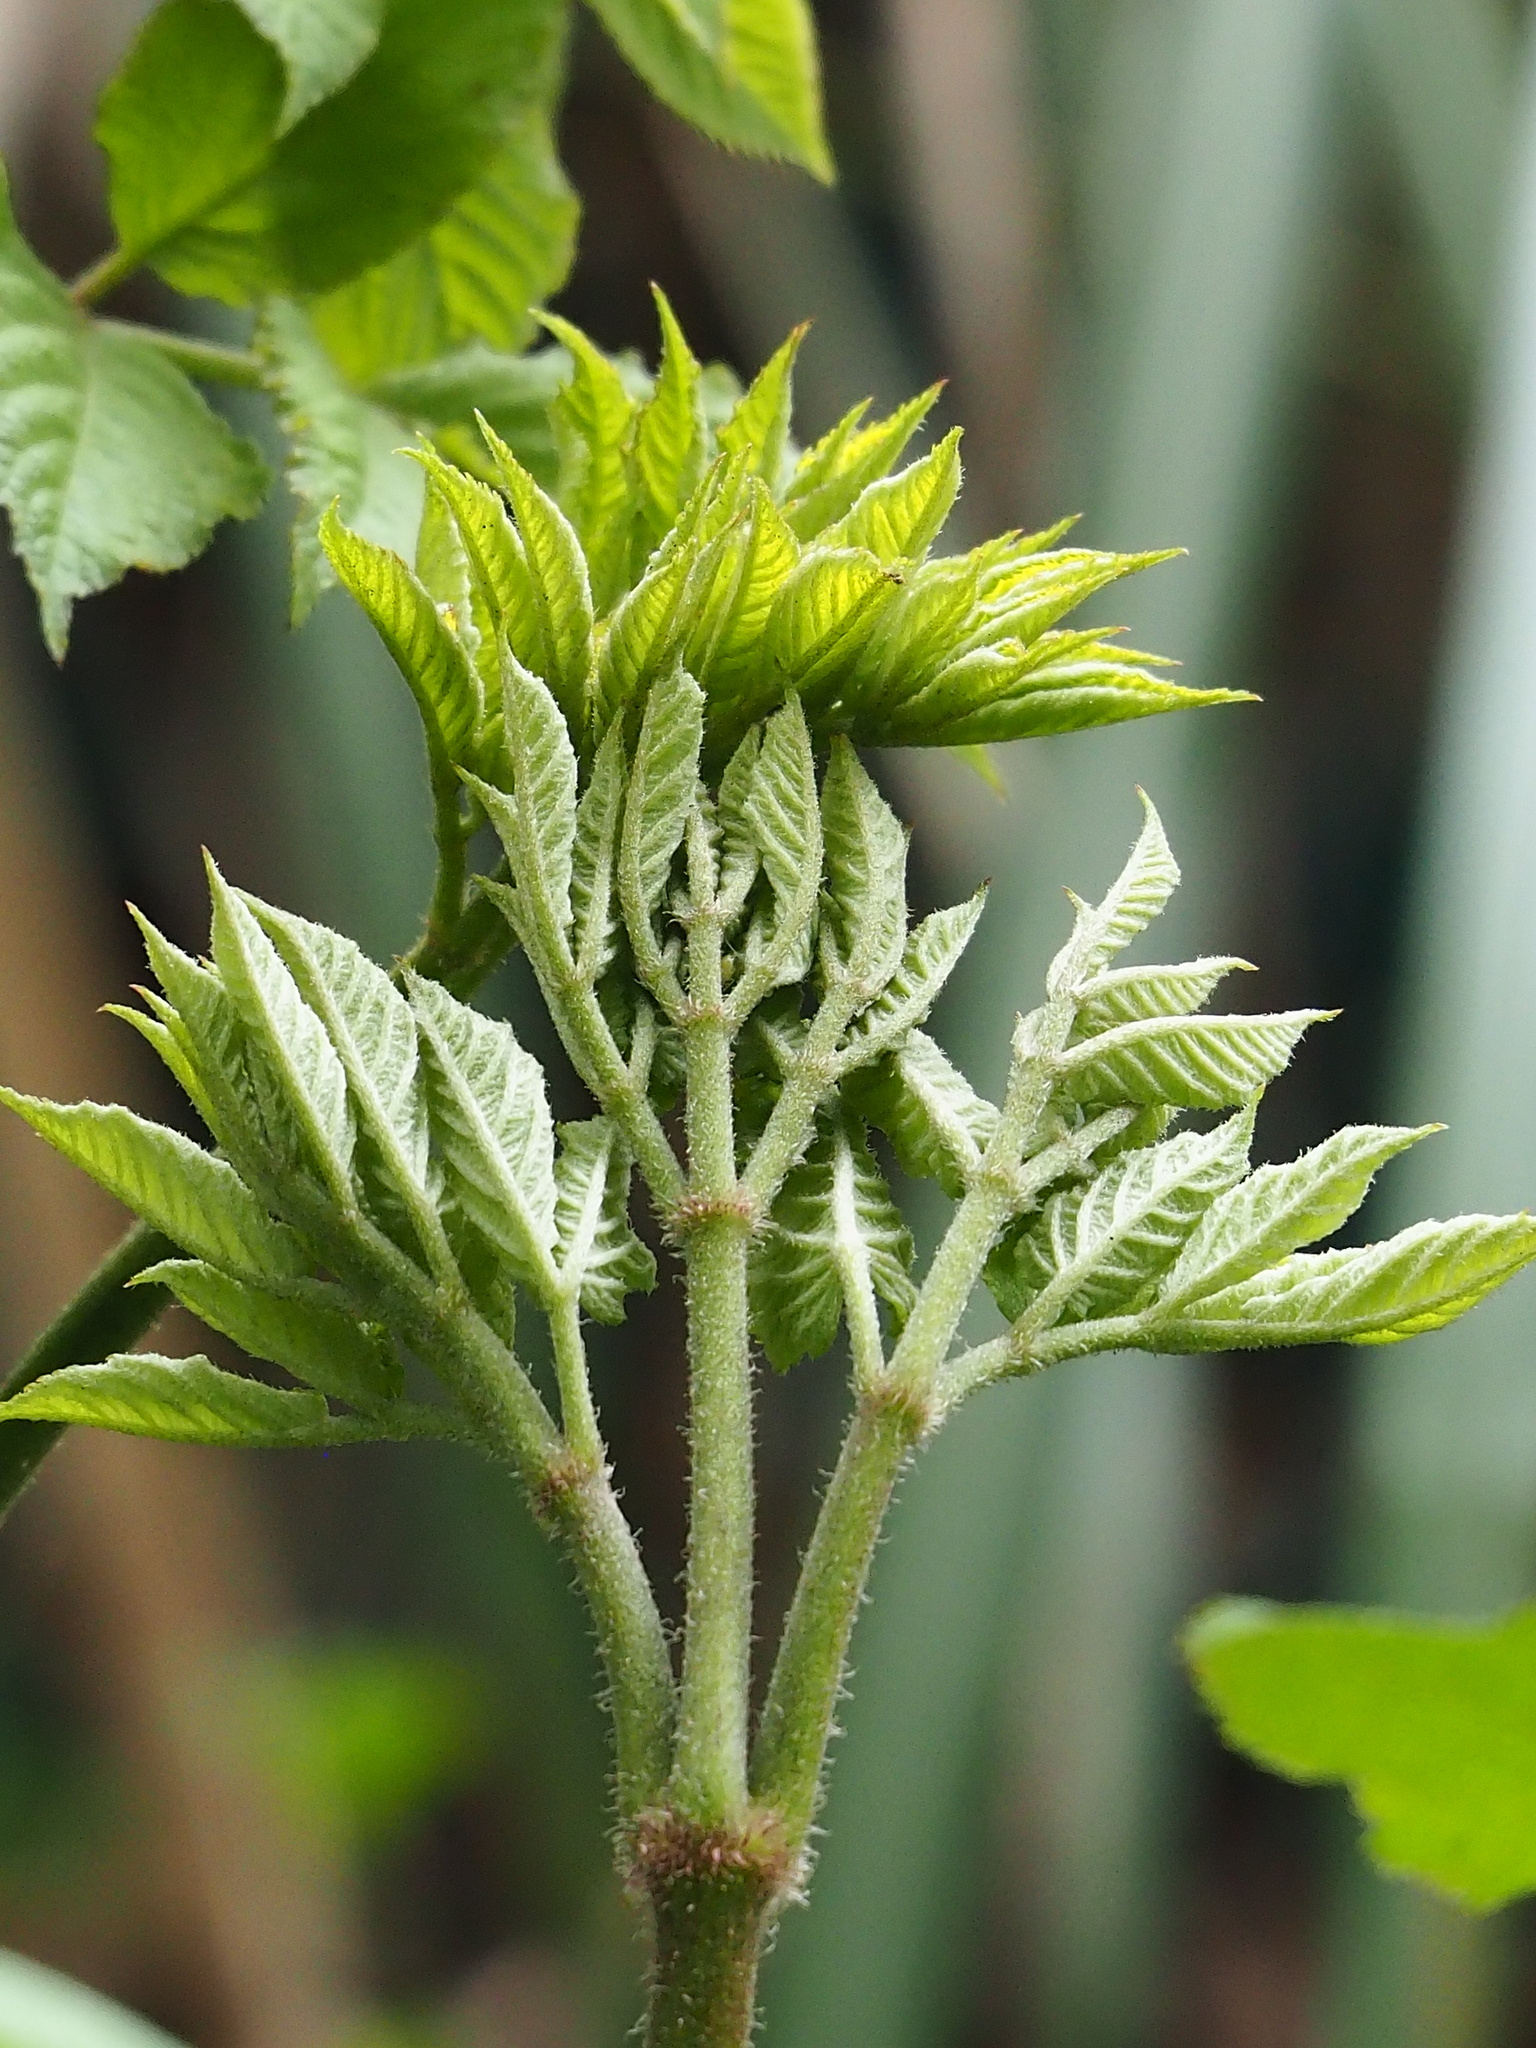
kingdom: Plantae
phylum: Tracheophyta
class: Magnoliopsida
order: Apiales
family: Araliaceae
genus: Aralia
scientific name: Aralia cordata
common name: Udo
